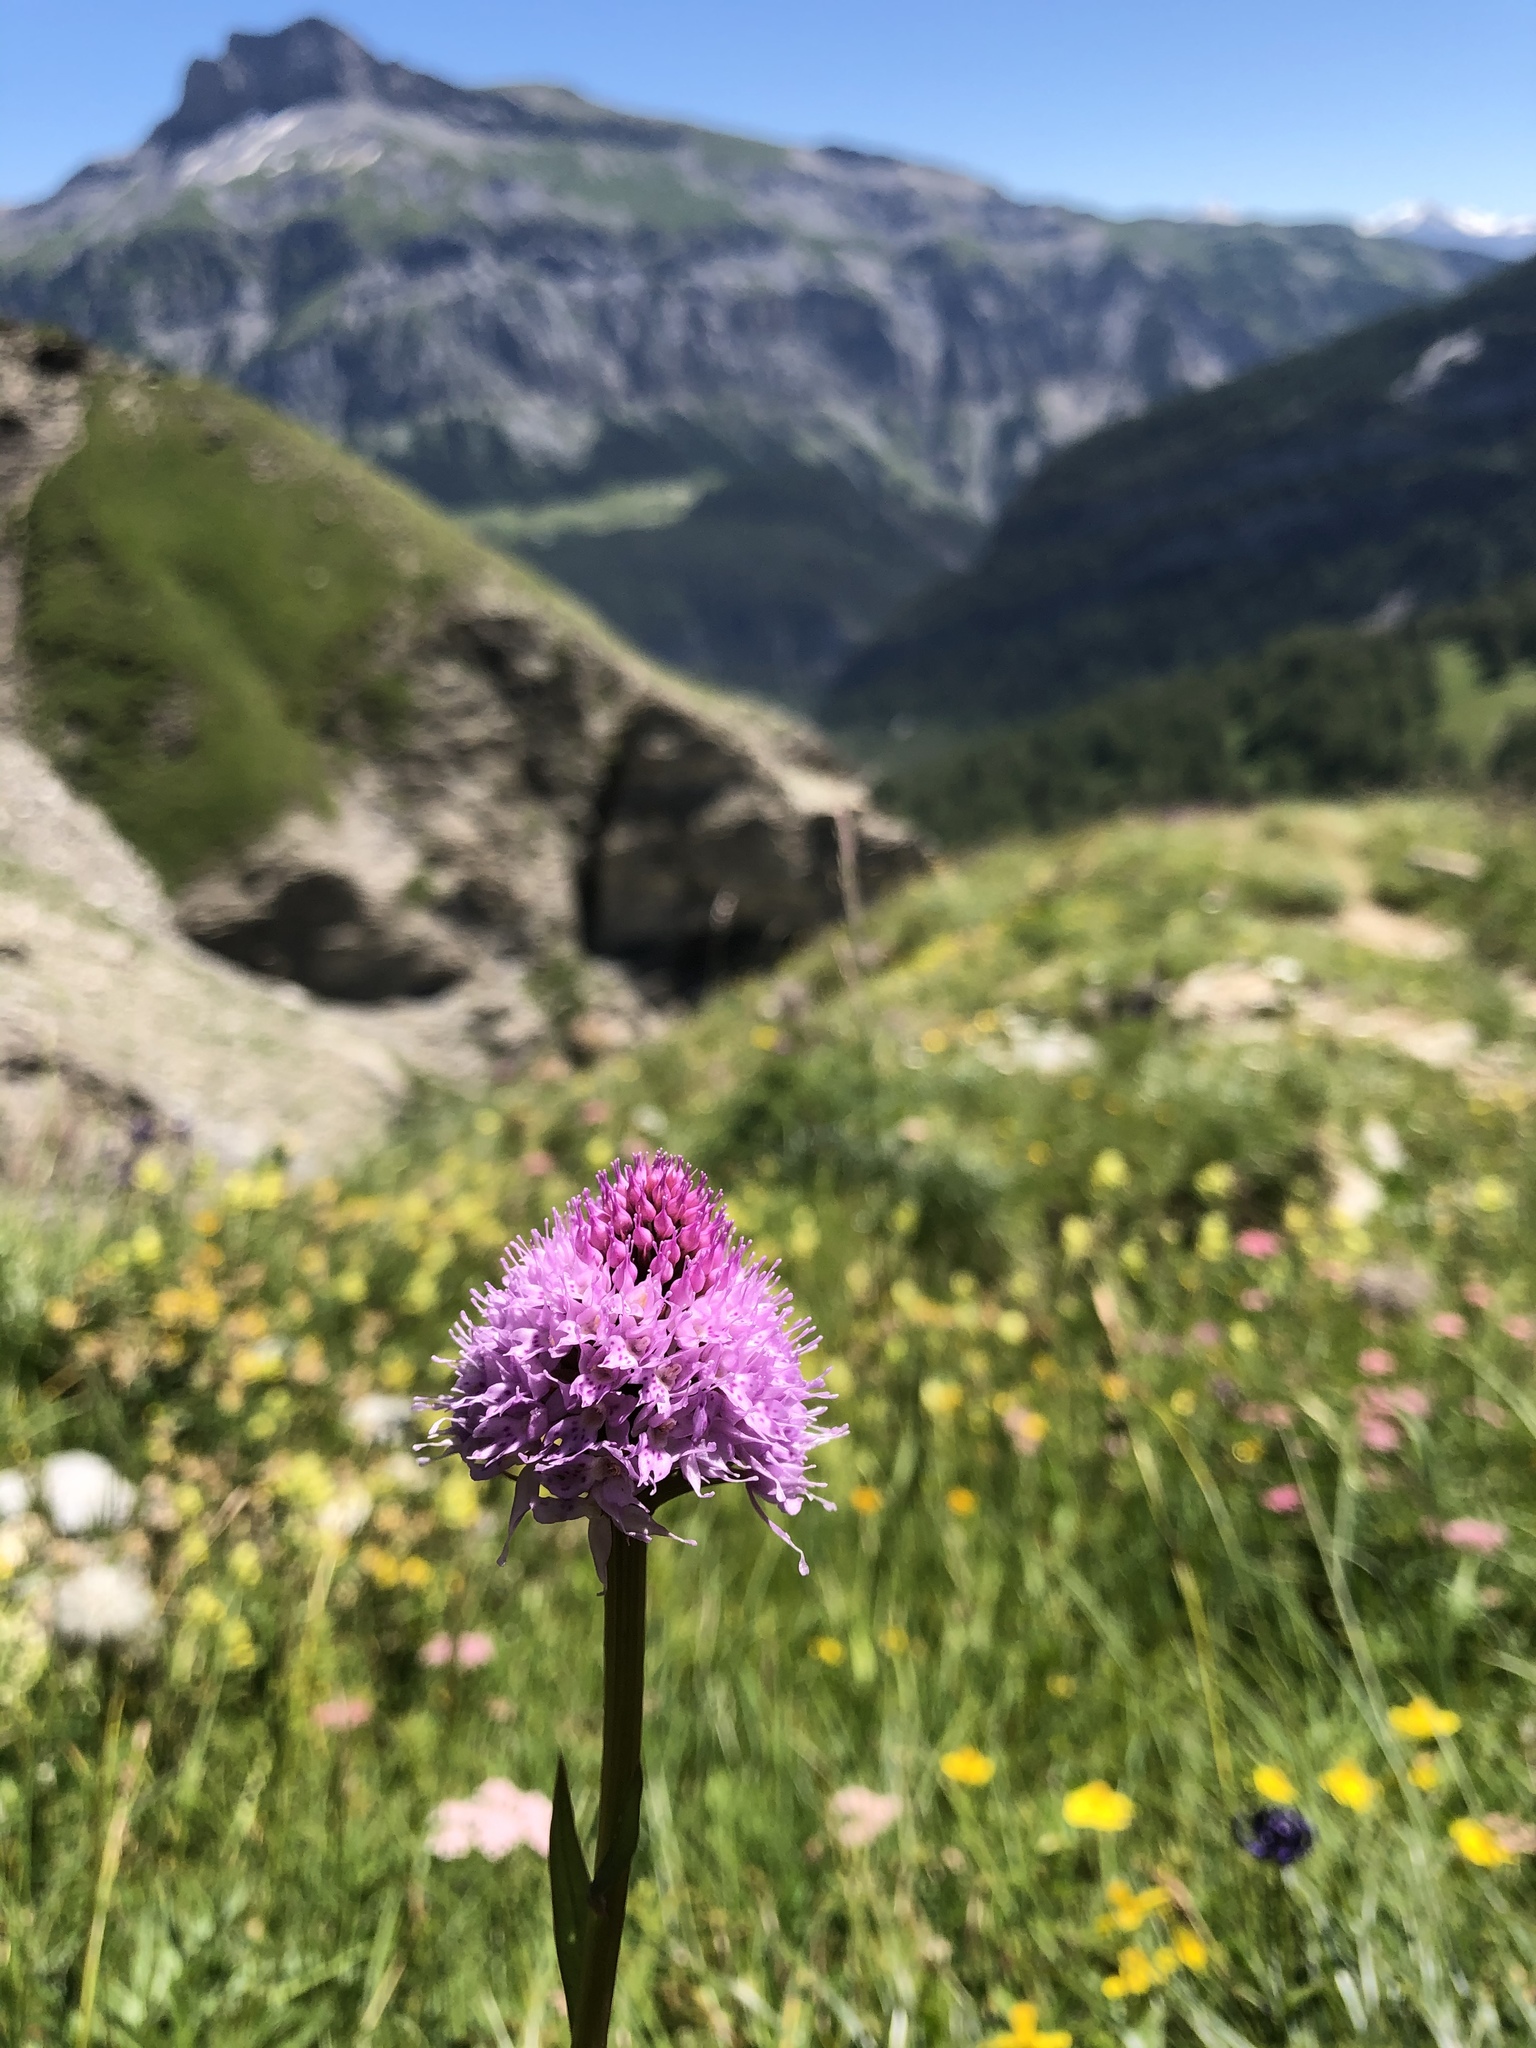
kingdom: Plantae
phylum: Tracheophyta
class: Liliopsida
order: Asparagales
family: Orchidaceae
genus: Traunsteinera
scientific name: Traunsteinera globosa
